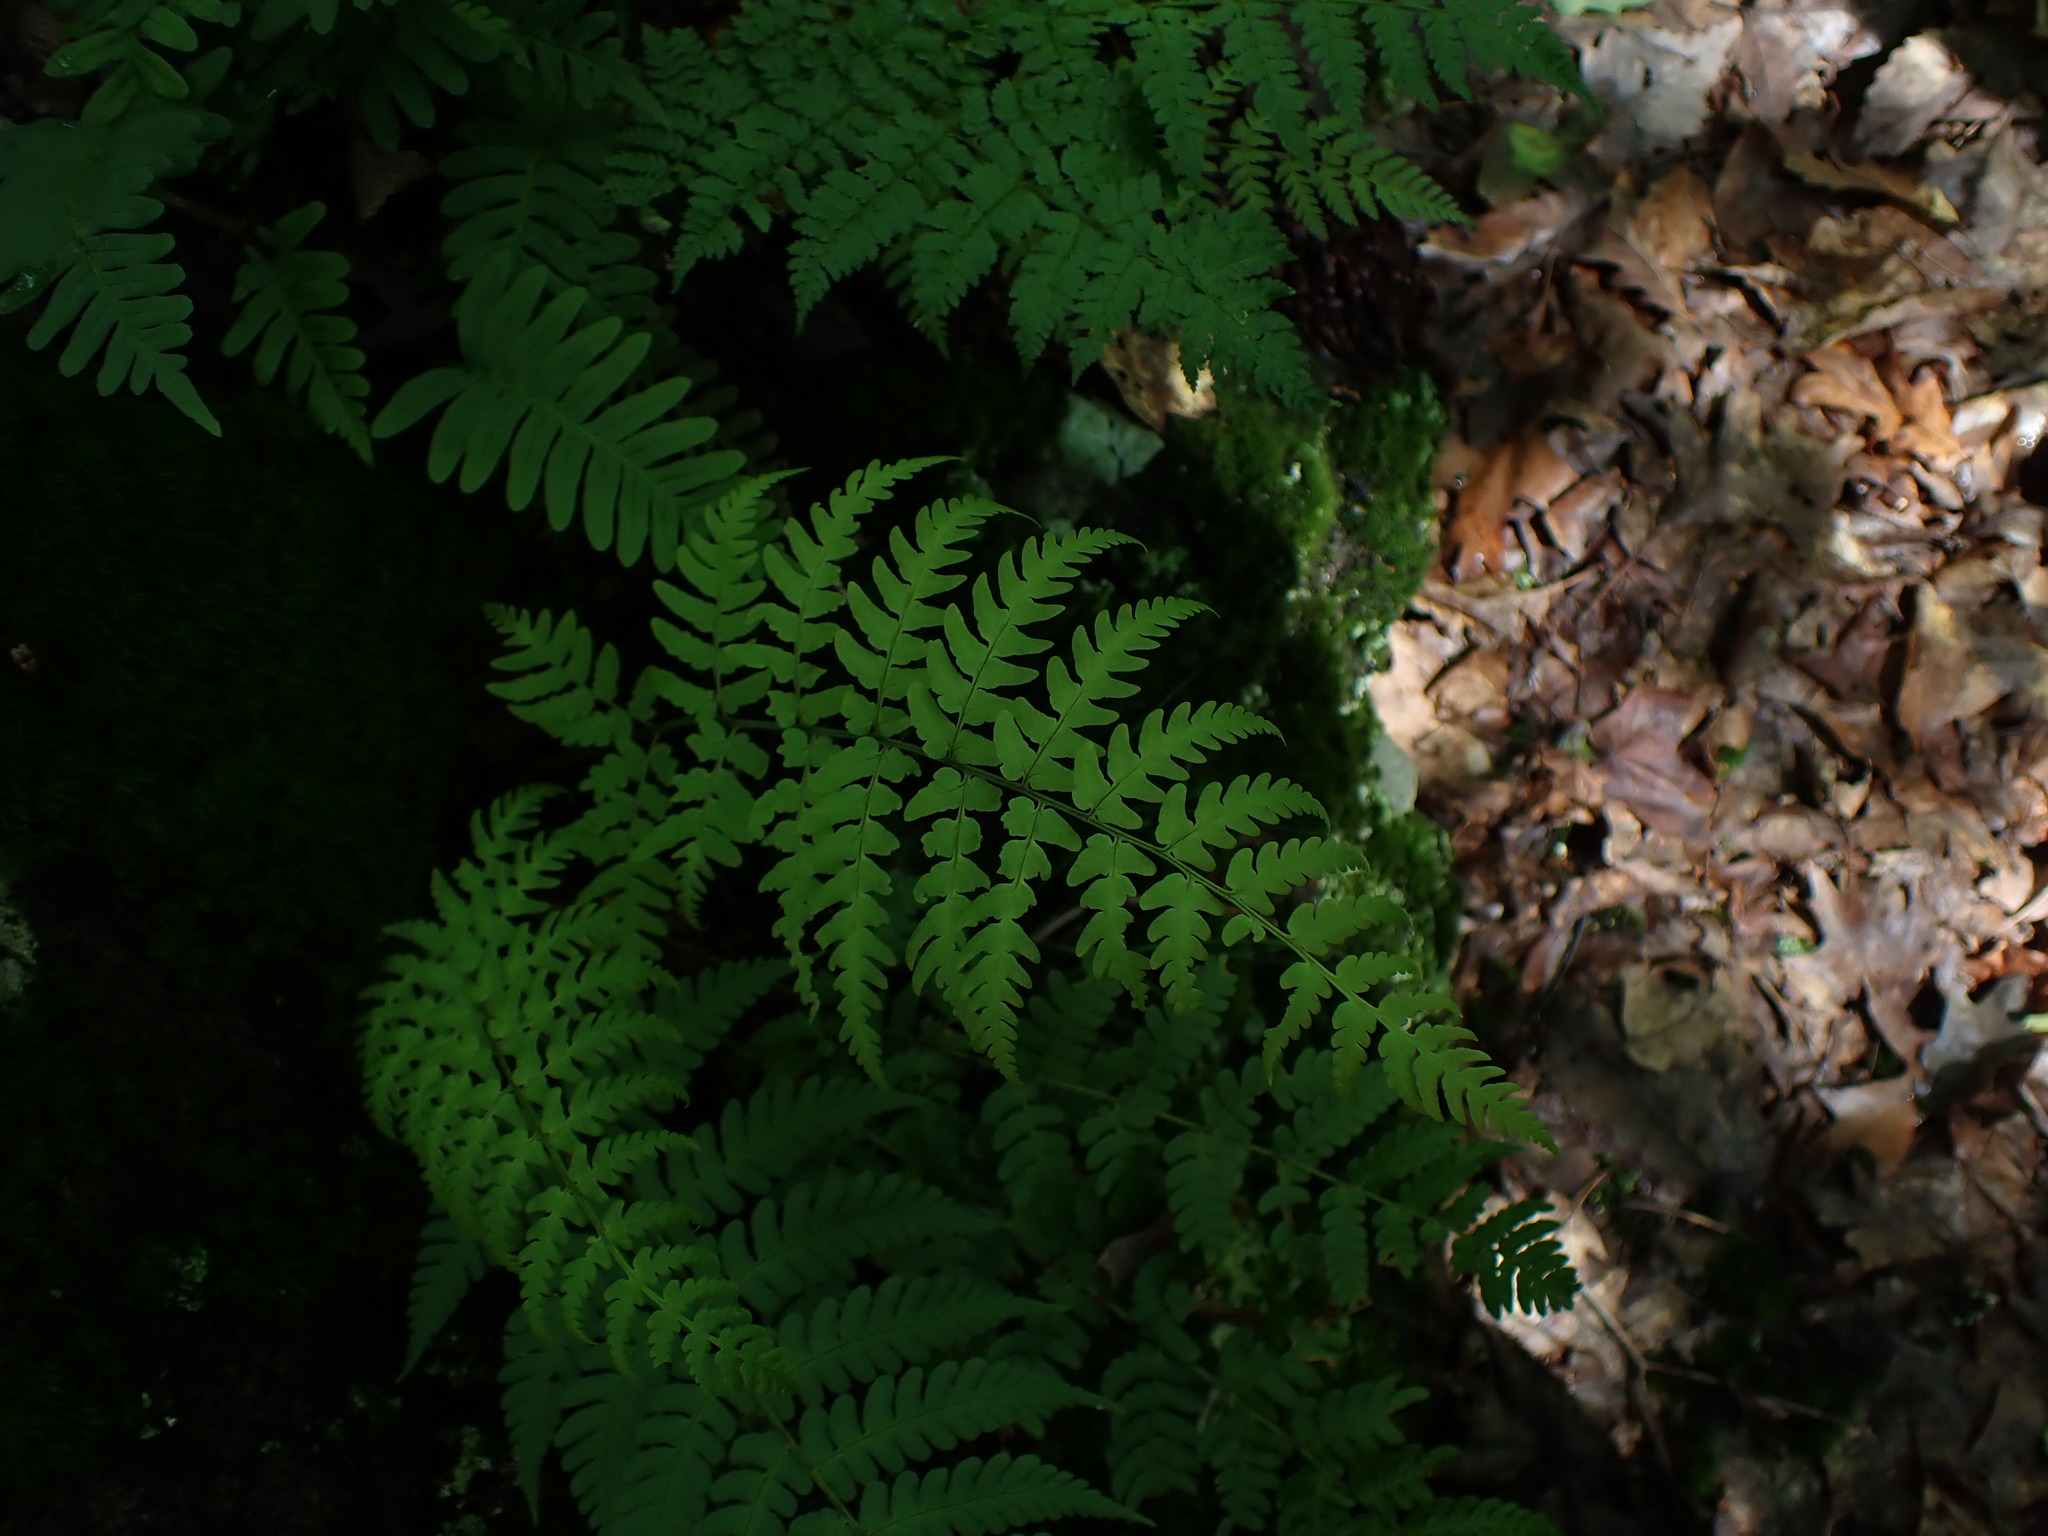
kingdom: Plantae
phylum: Tracheophyta
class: Polypodiopsida
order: Polypodiales
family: Dryopteridaceae
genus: Dryopteris
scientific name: Dryopteris marginalis
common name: Marginal wood fern
